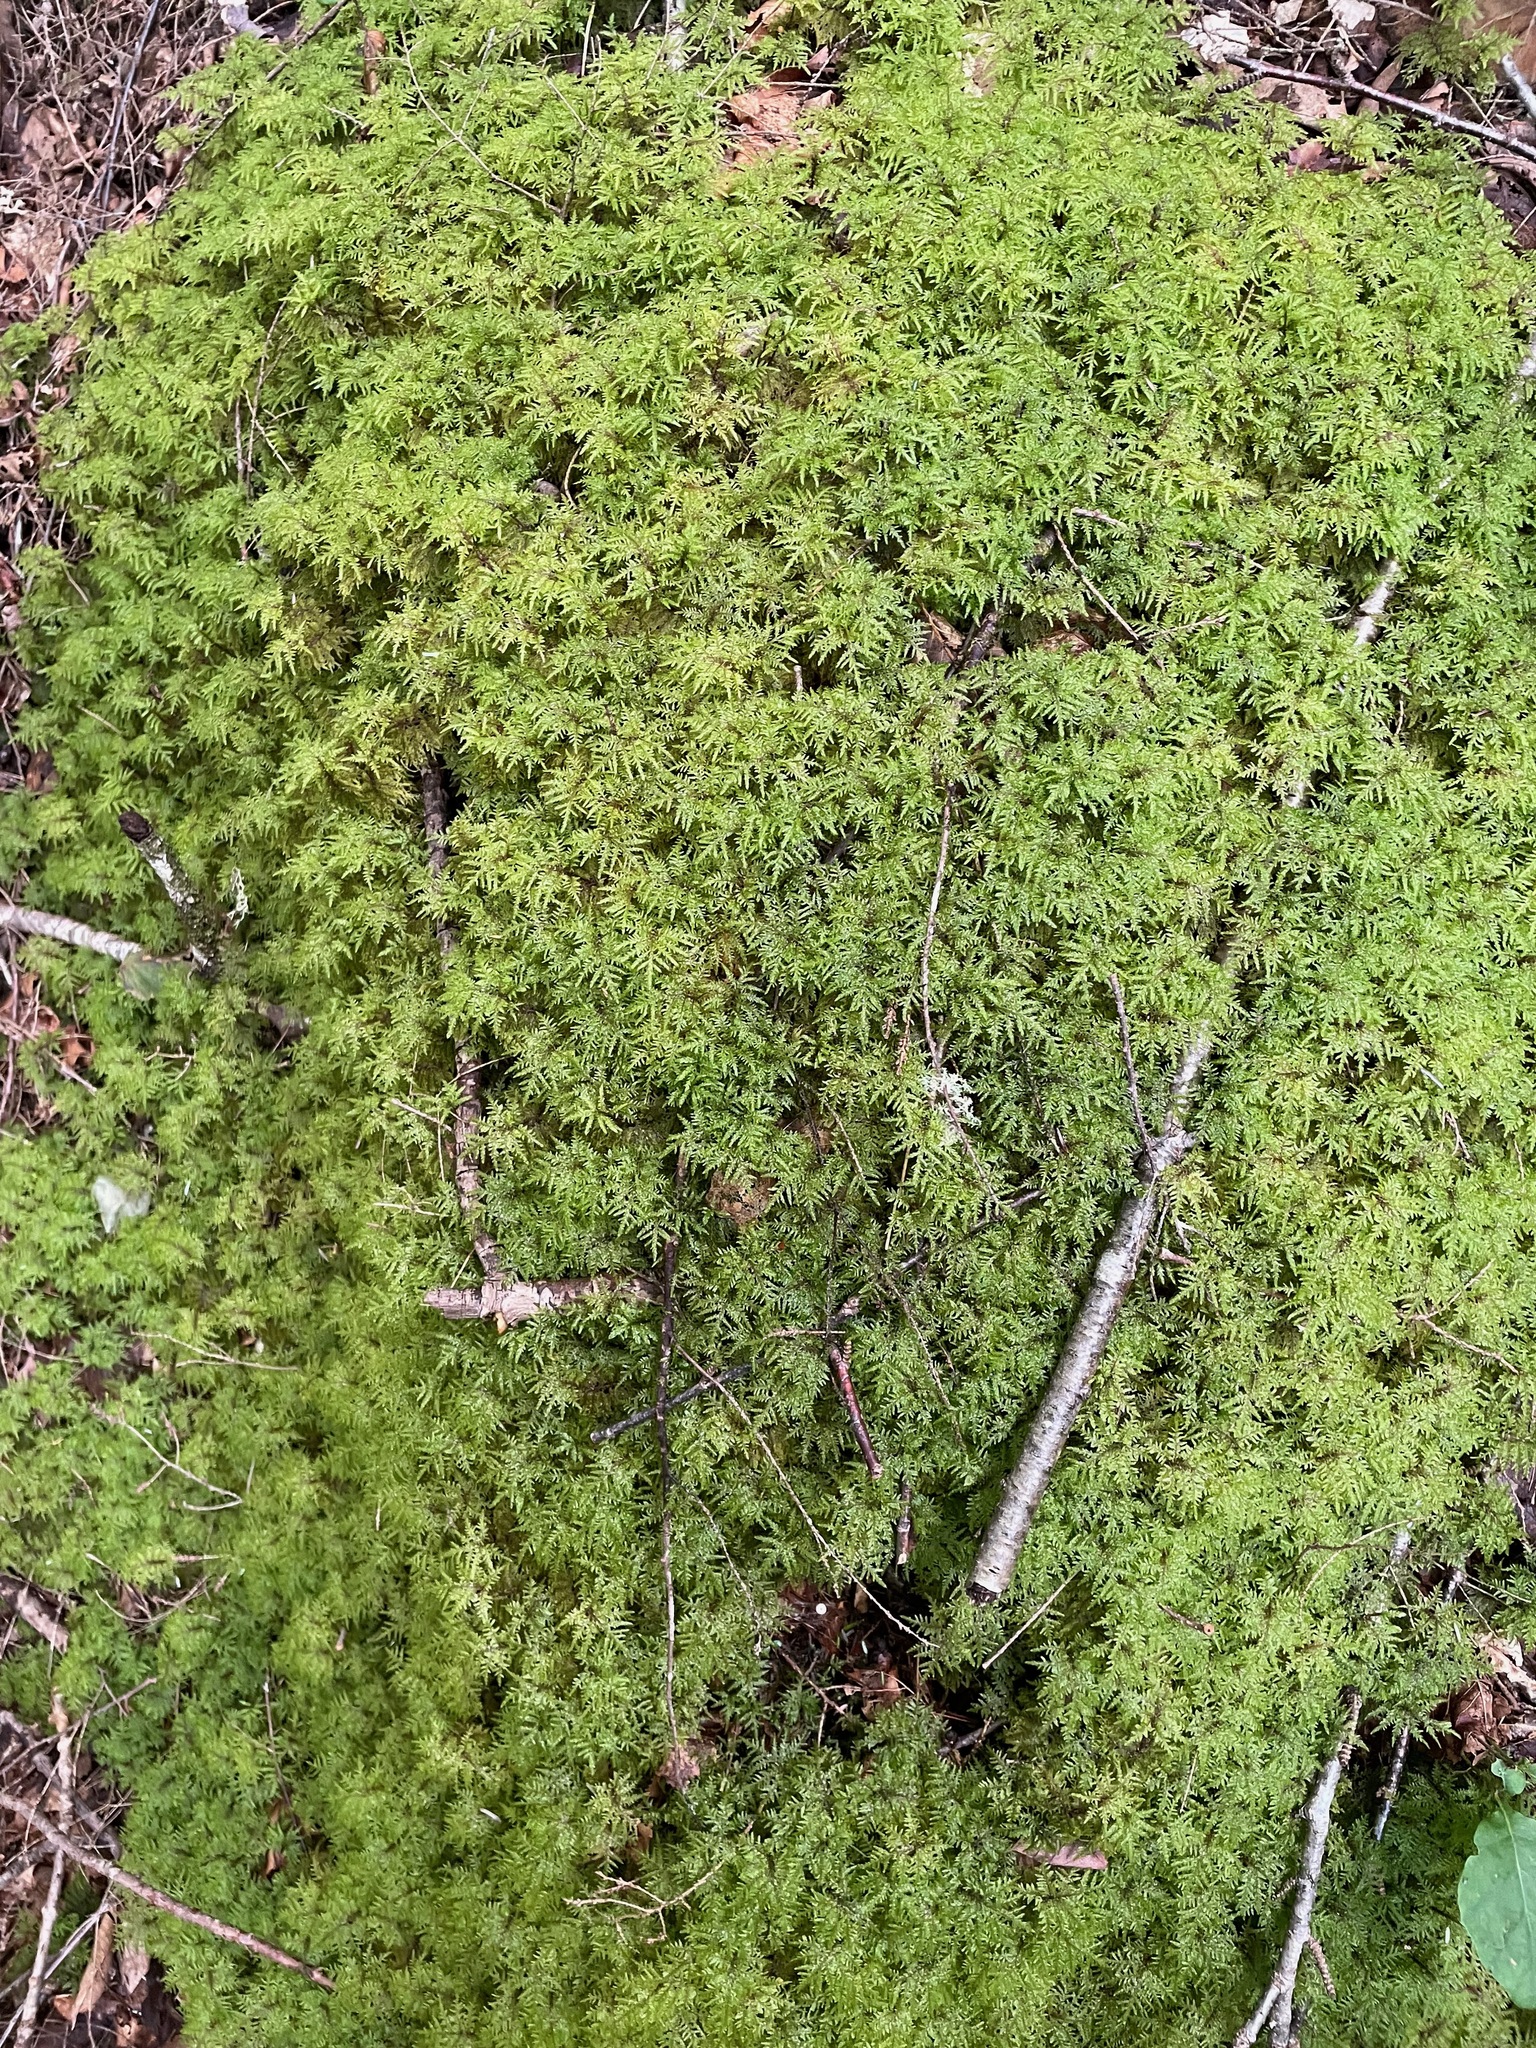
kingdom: Plantae
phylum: Bryophyta
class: Bryopsida
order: Hypnales
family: Hylocomiaceae
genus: Hylocomium
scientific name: Hylocomium splendens
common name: Stairstep moss
